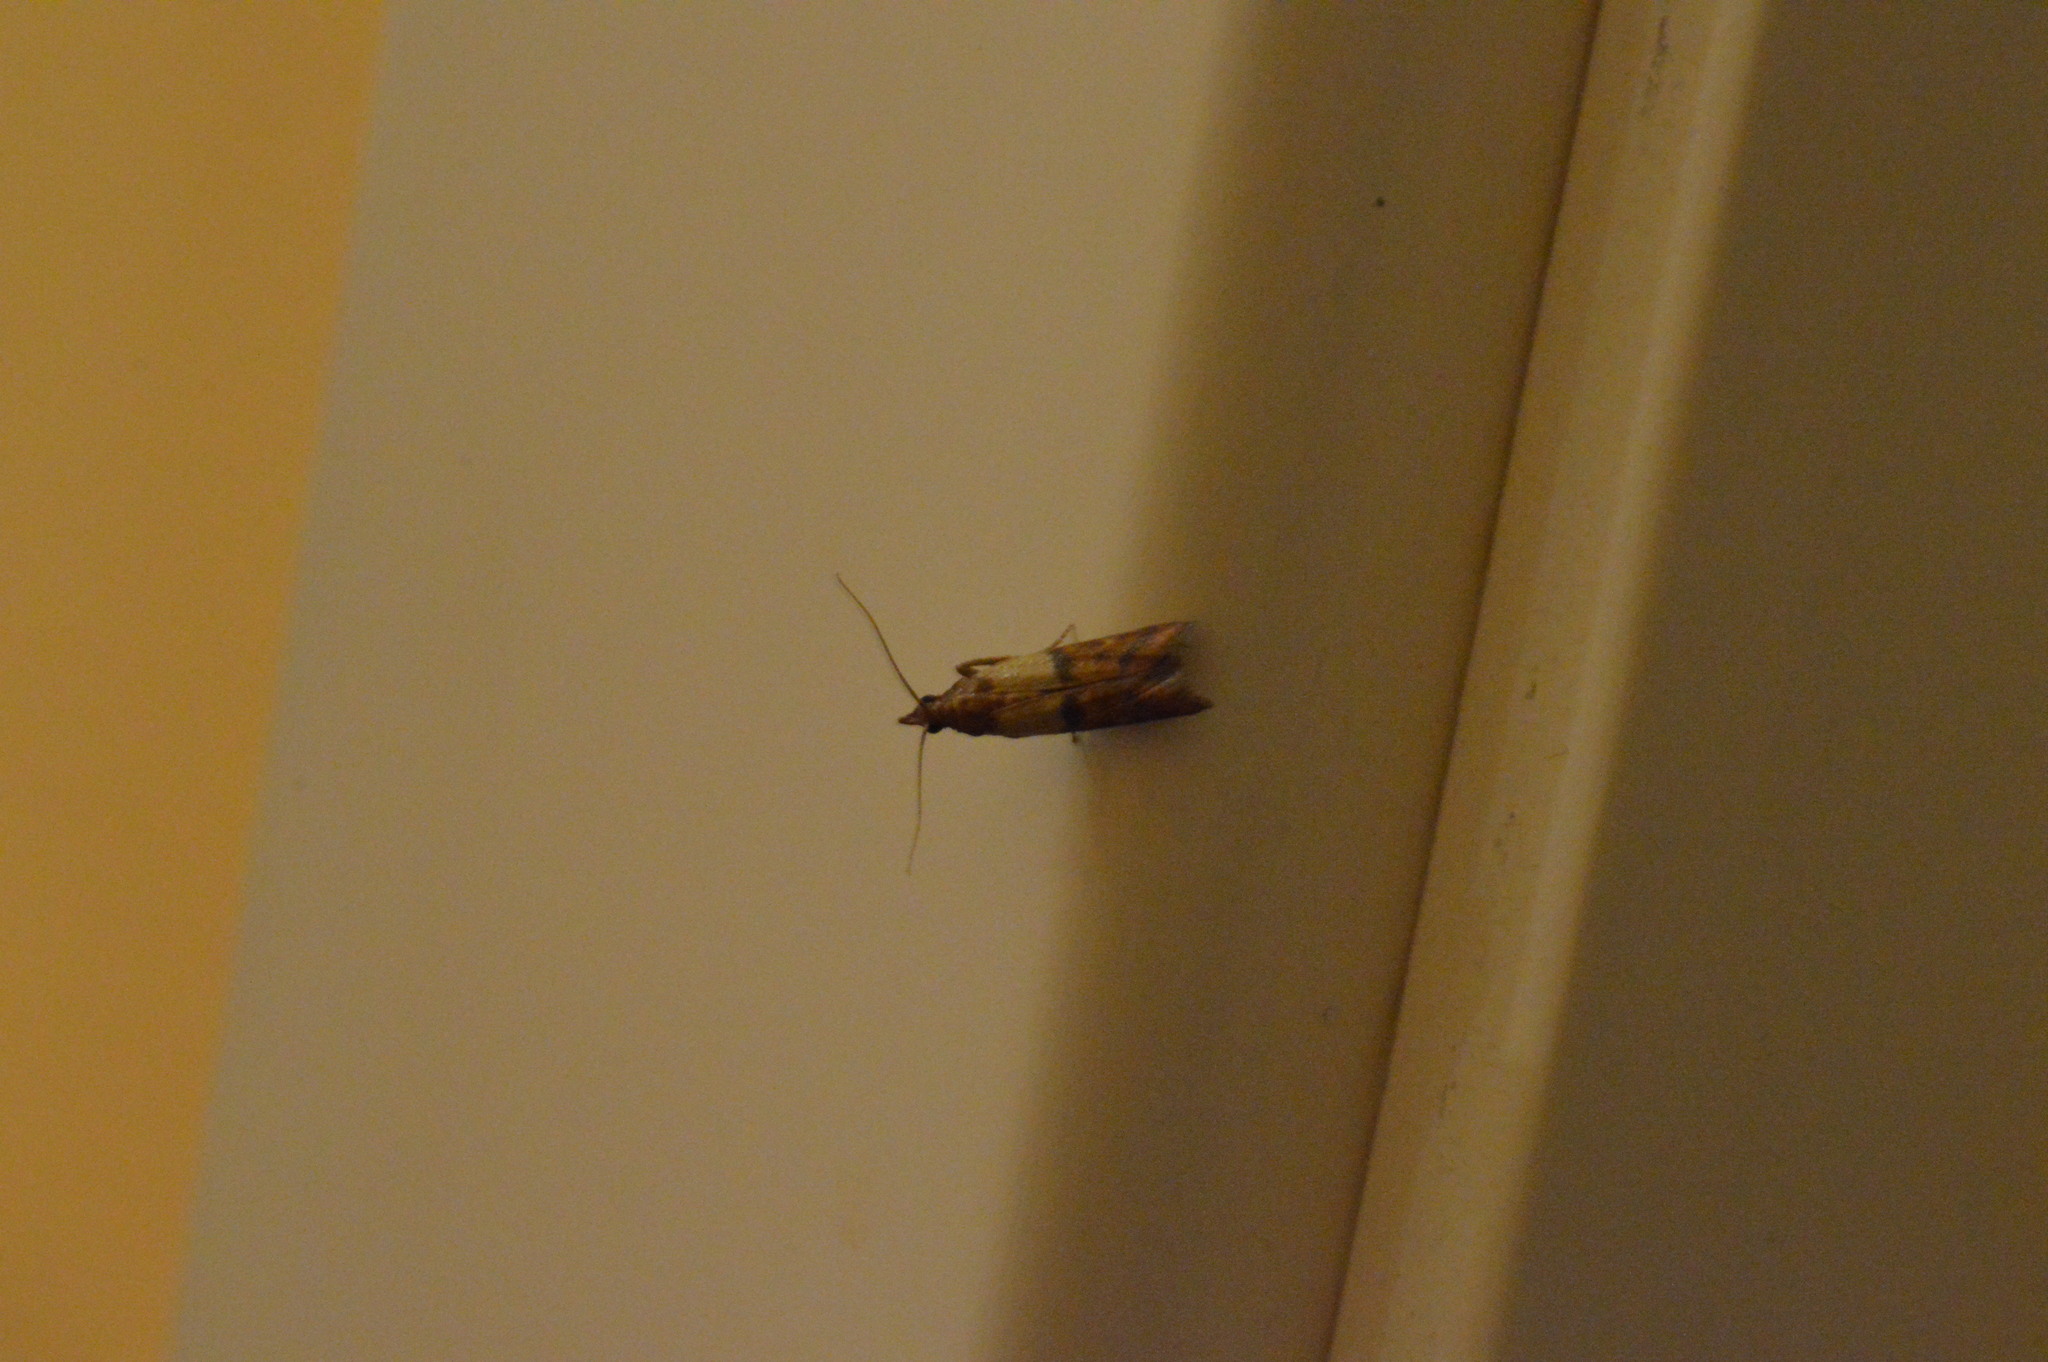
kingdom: Animalia
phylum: Arthropoda
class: Insecta
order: Lepidoptera
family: Pyralidae
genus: Plodia
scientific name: Plodia interpunctella
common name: Indian meal moth
